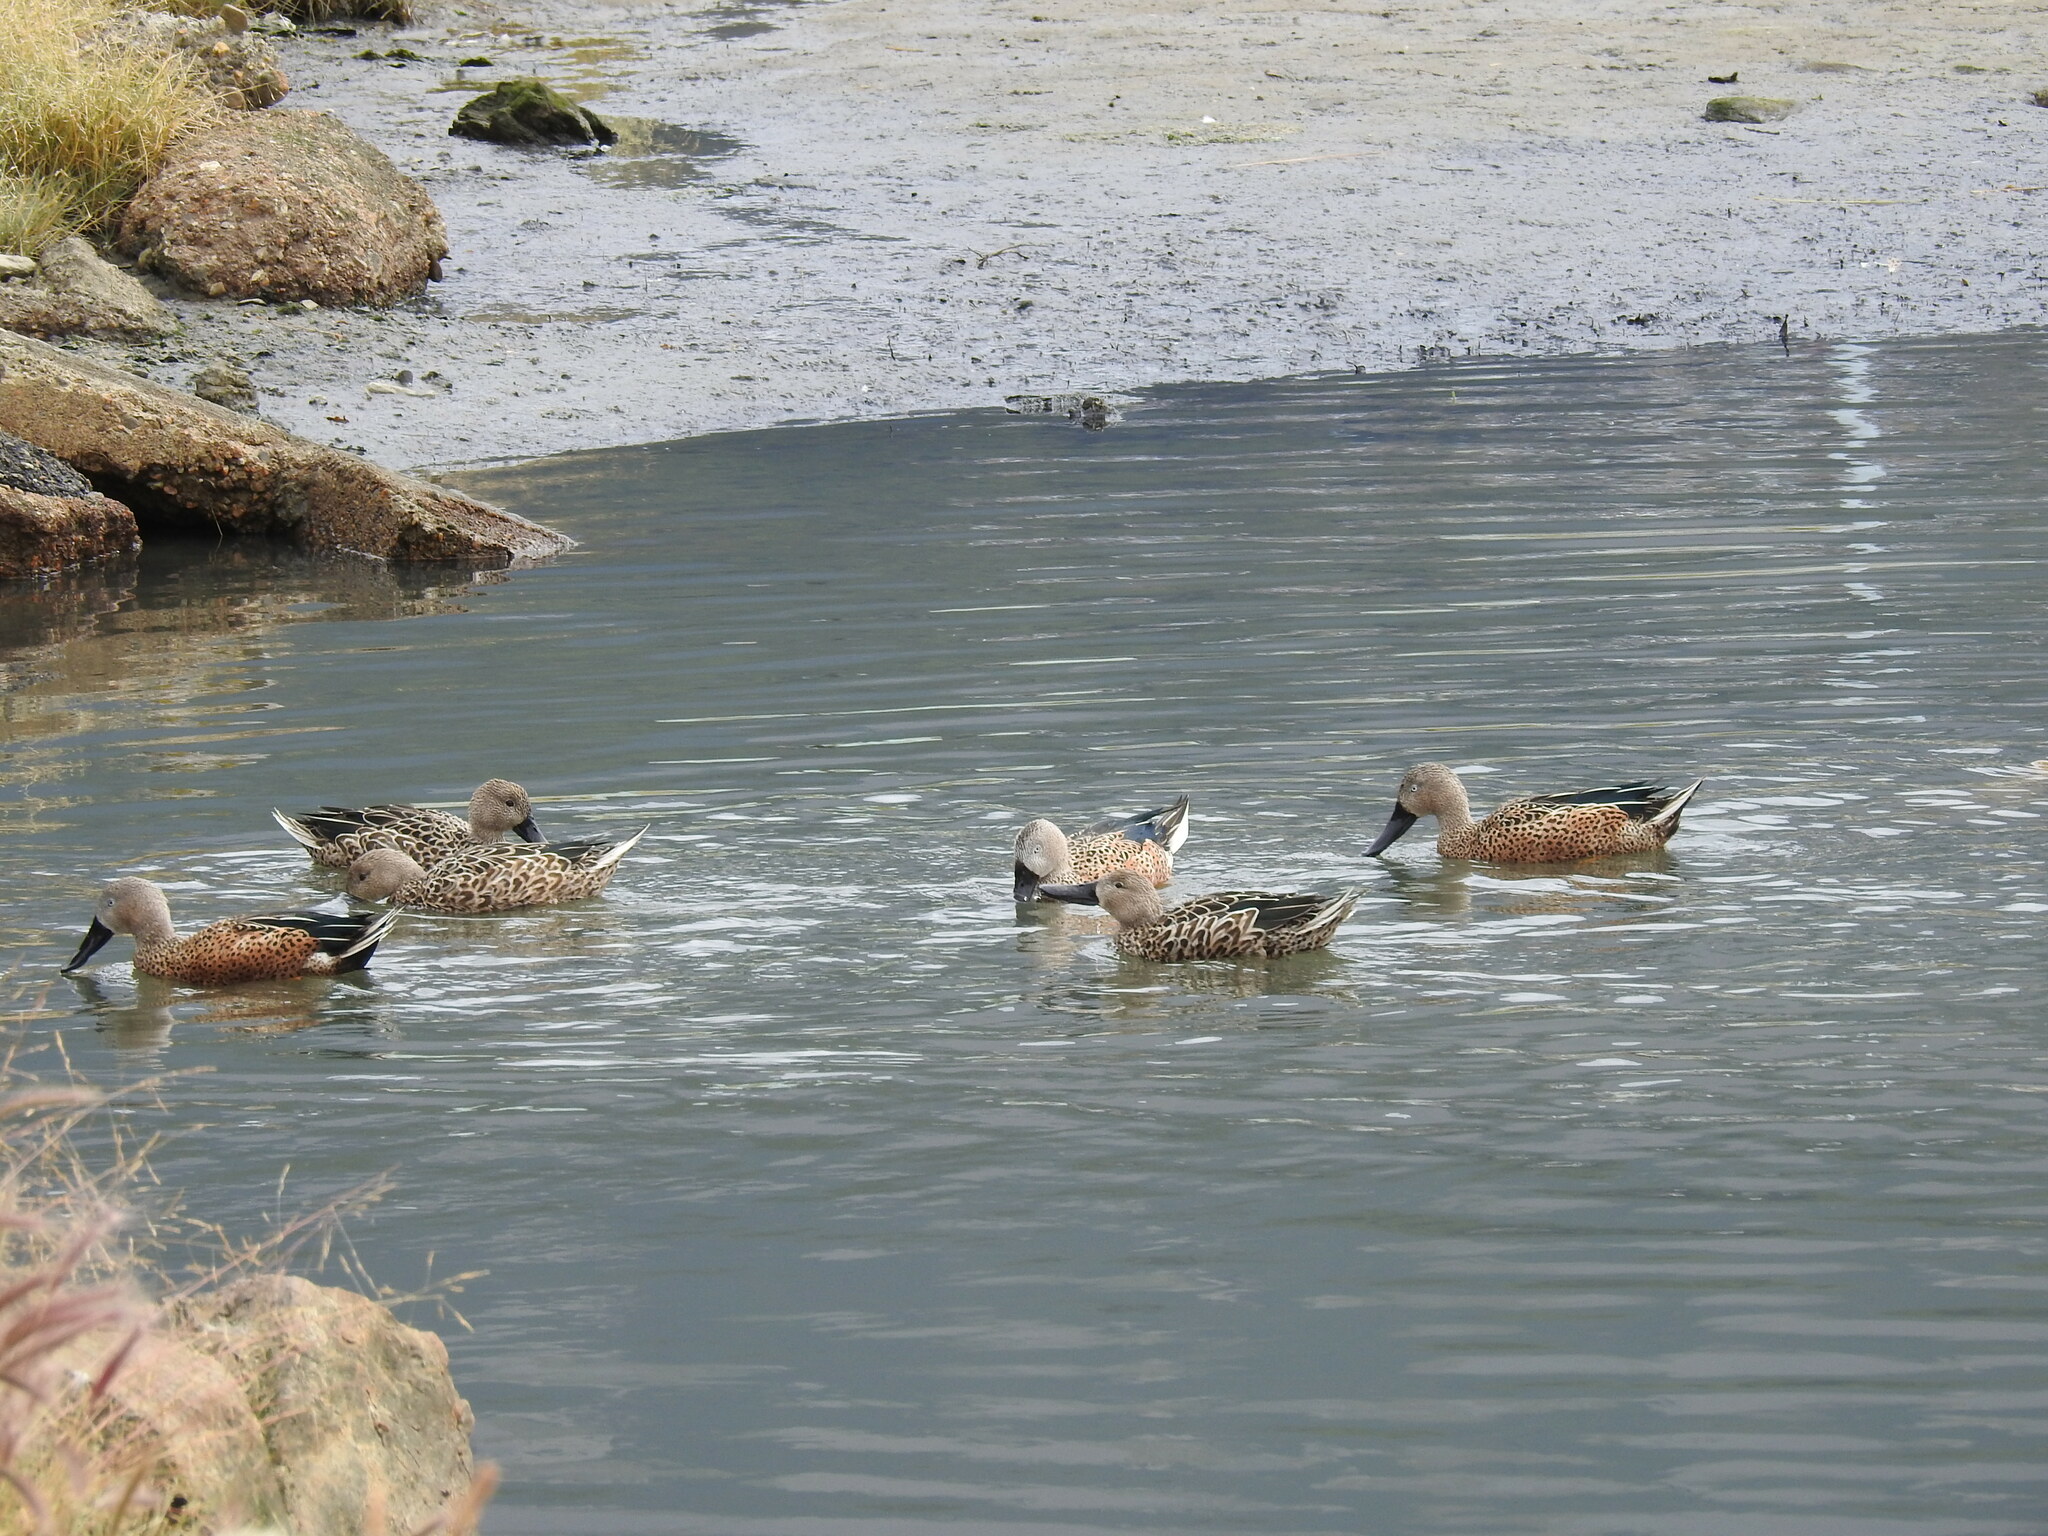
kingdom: Animalia
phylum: Chordata
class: Aves
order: Anseriformes
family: Anatidae
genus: Spatula
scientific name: Spatula platalea
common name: Red shoveler
